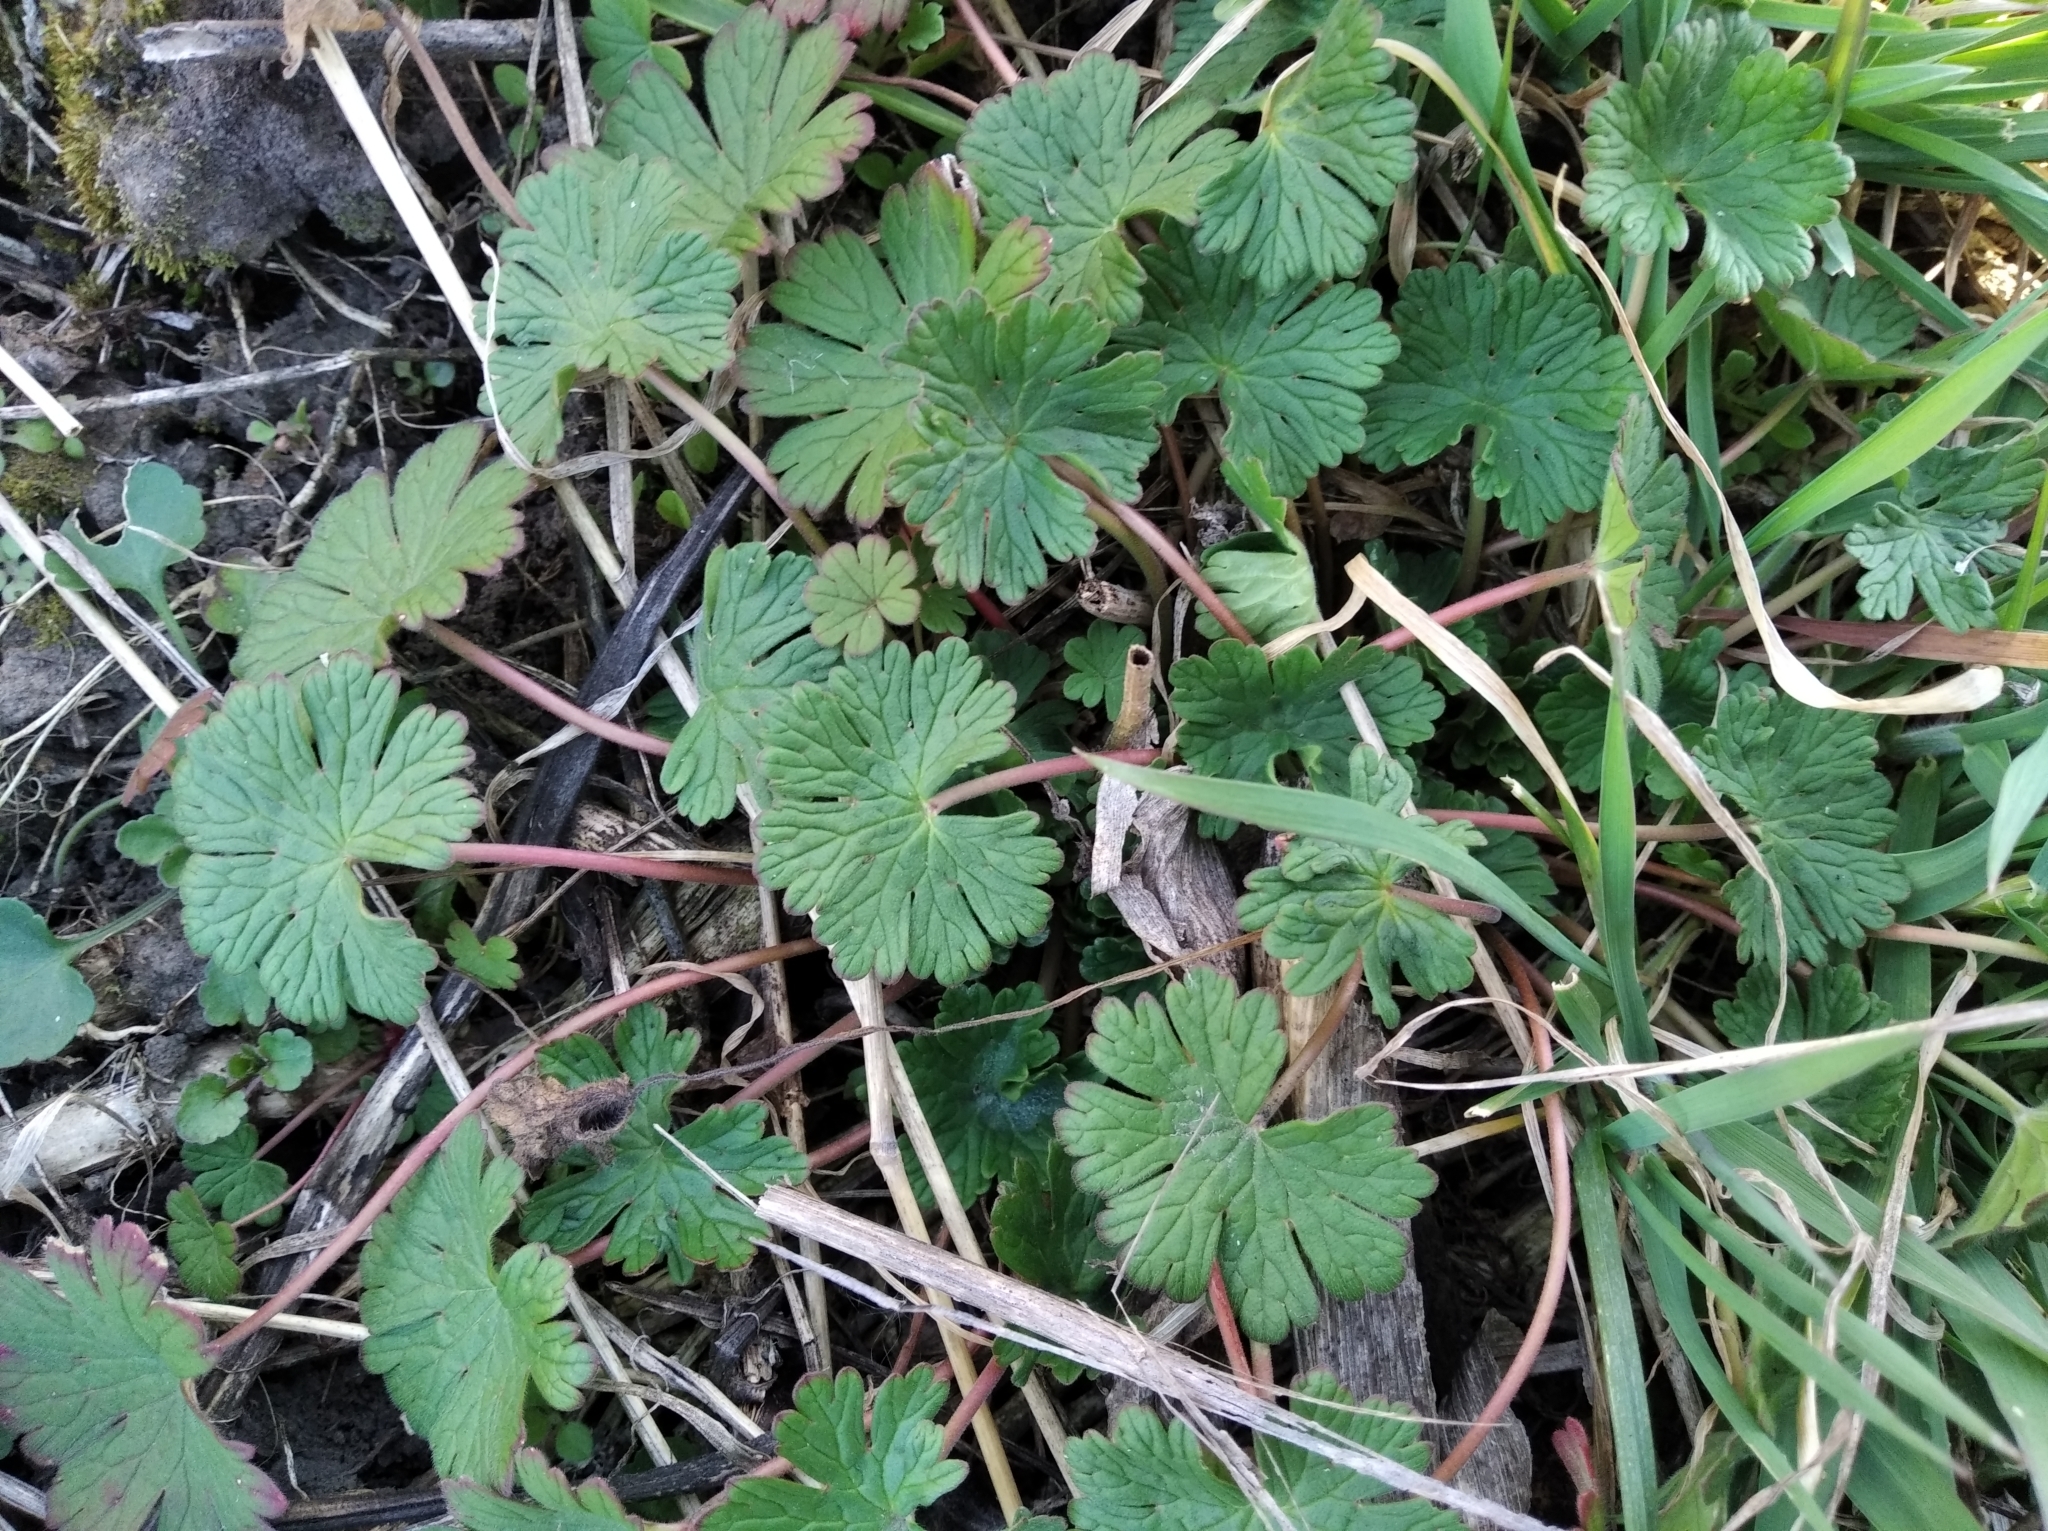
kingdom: Plantae
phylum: Tracheophyta
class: Magnoliopsida
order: Geraniales
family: Geraniaceae
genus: Geranium
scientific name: Geranium pusillum
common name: Small geranium
